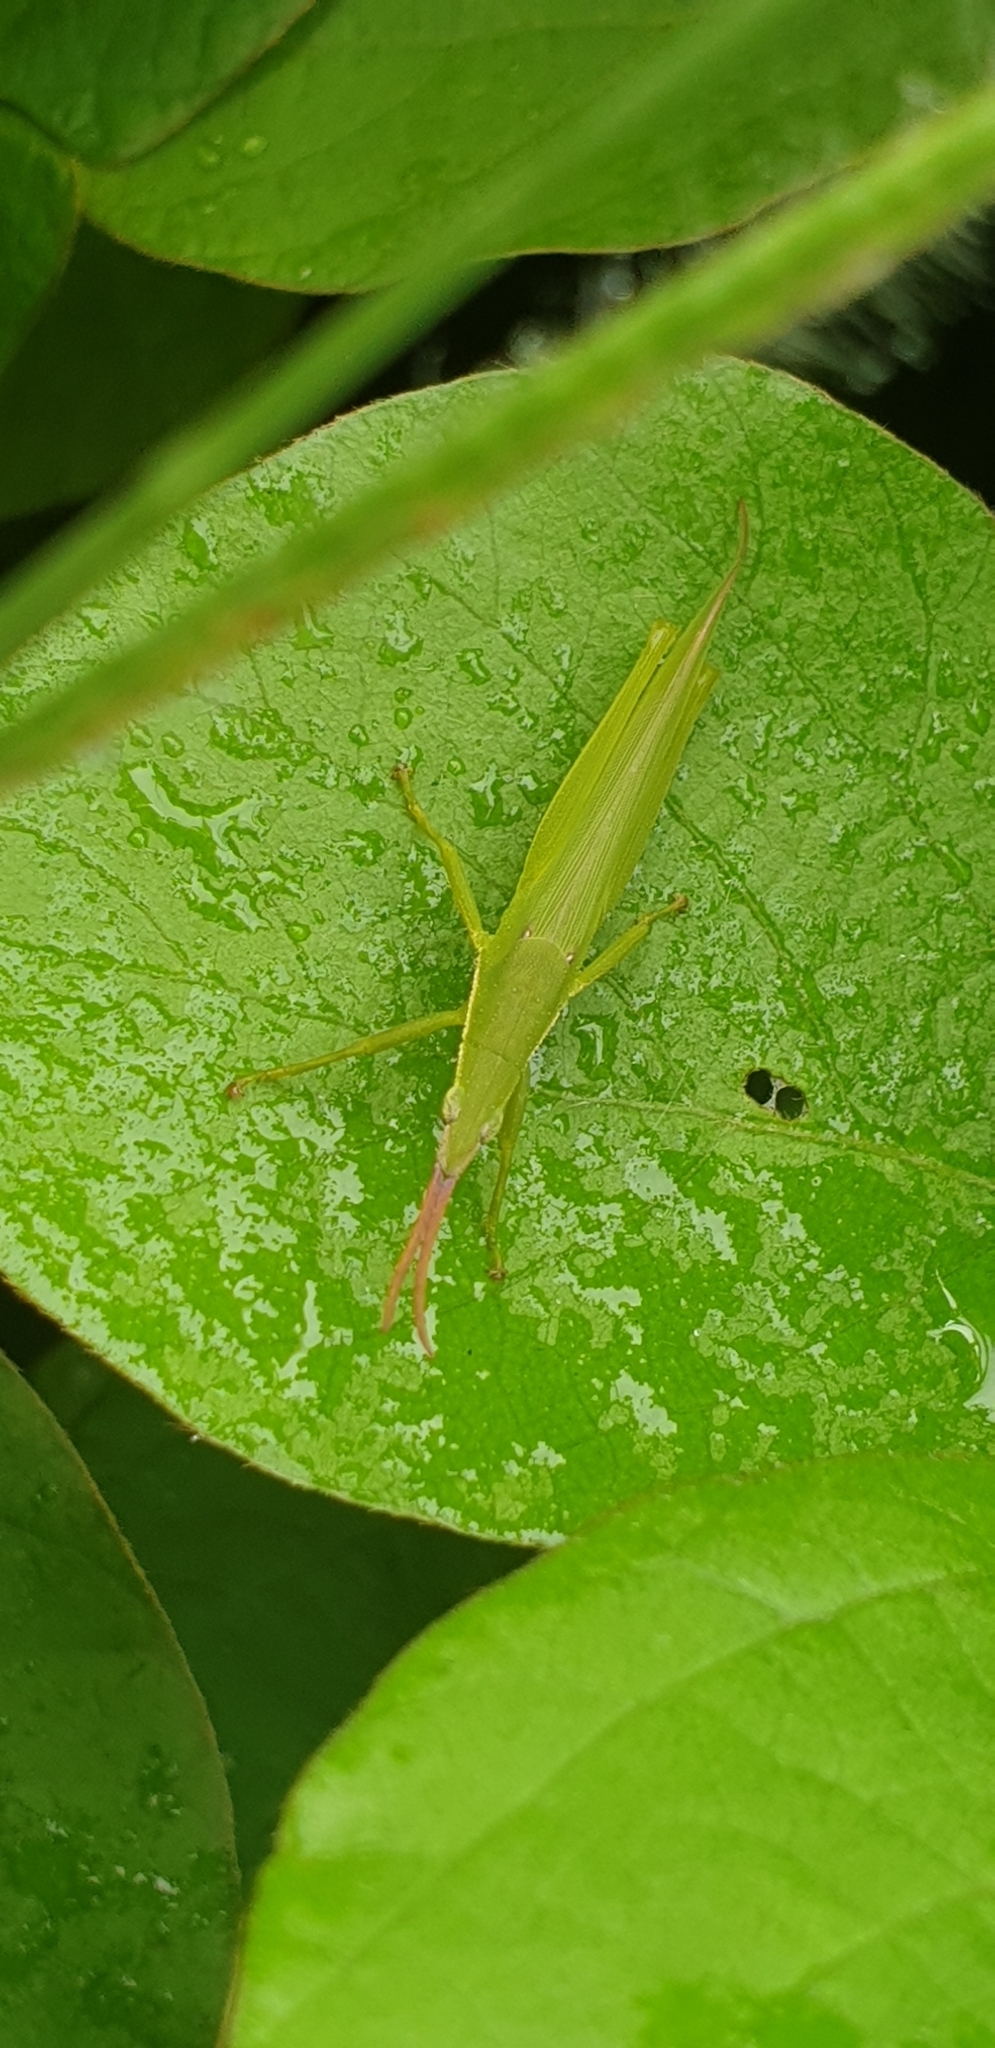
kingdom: Animalia
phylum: Arthropoda
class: Insecta
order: Orthoptera
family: Pyrgomorphidae
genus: Atractomorpha
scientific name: Atractomorpha australis
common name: Australian grass pyrgomorph
